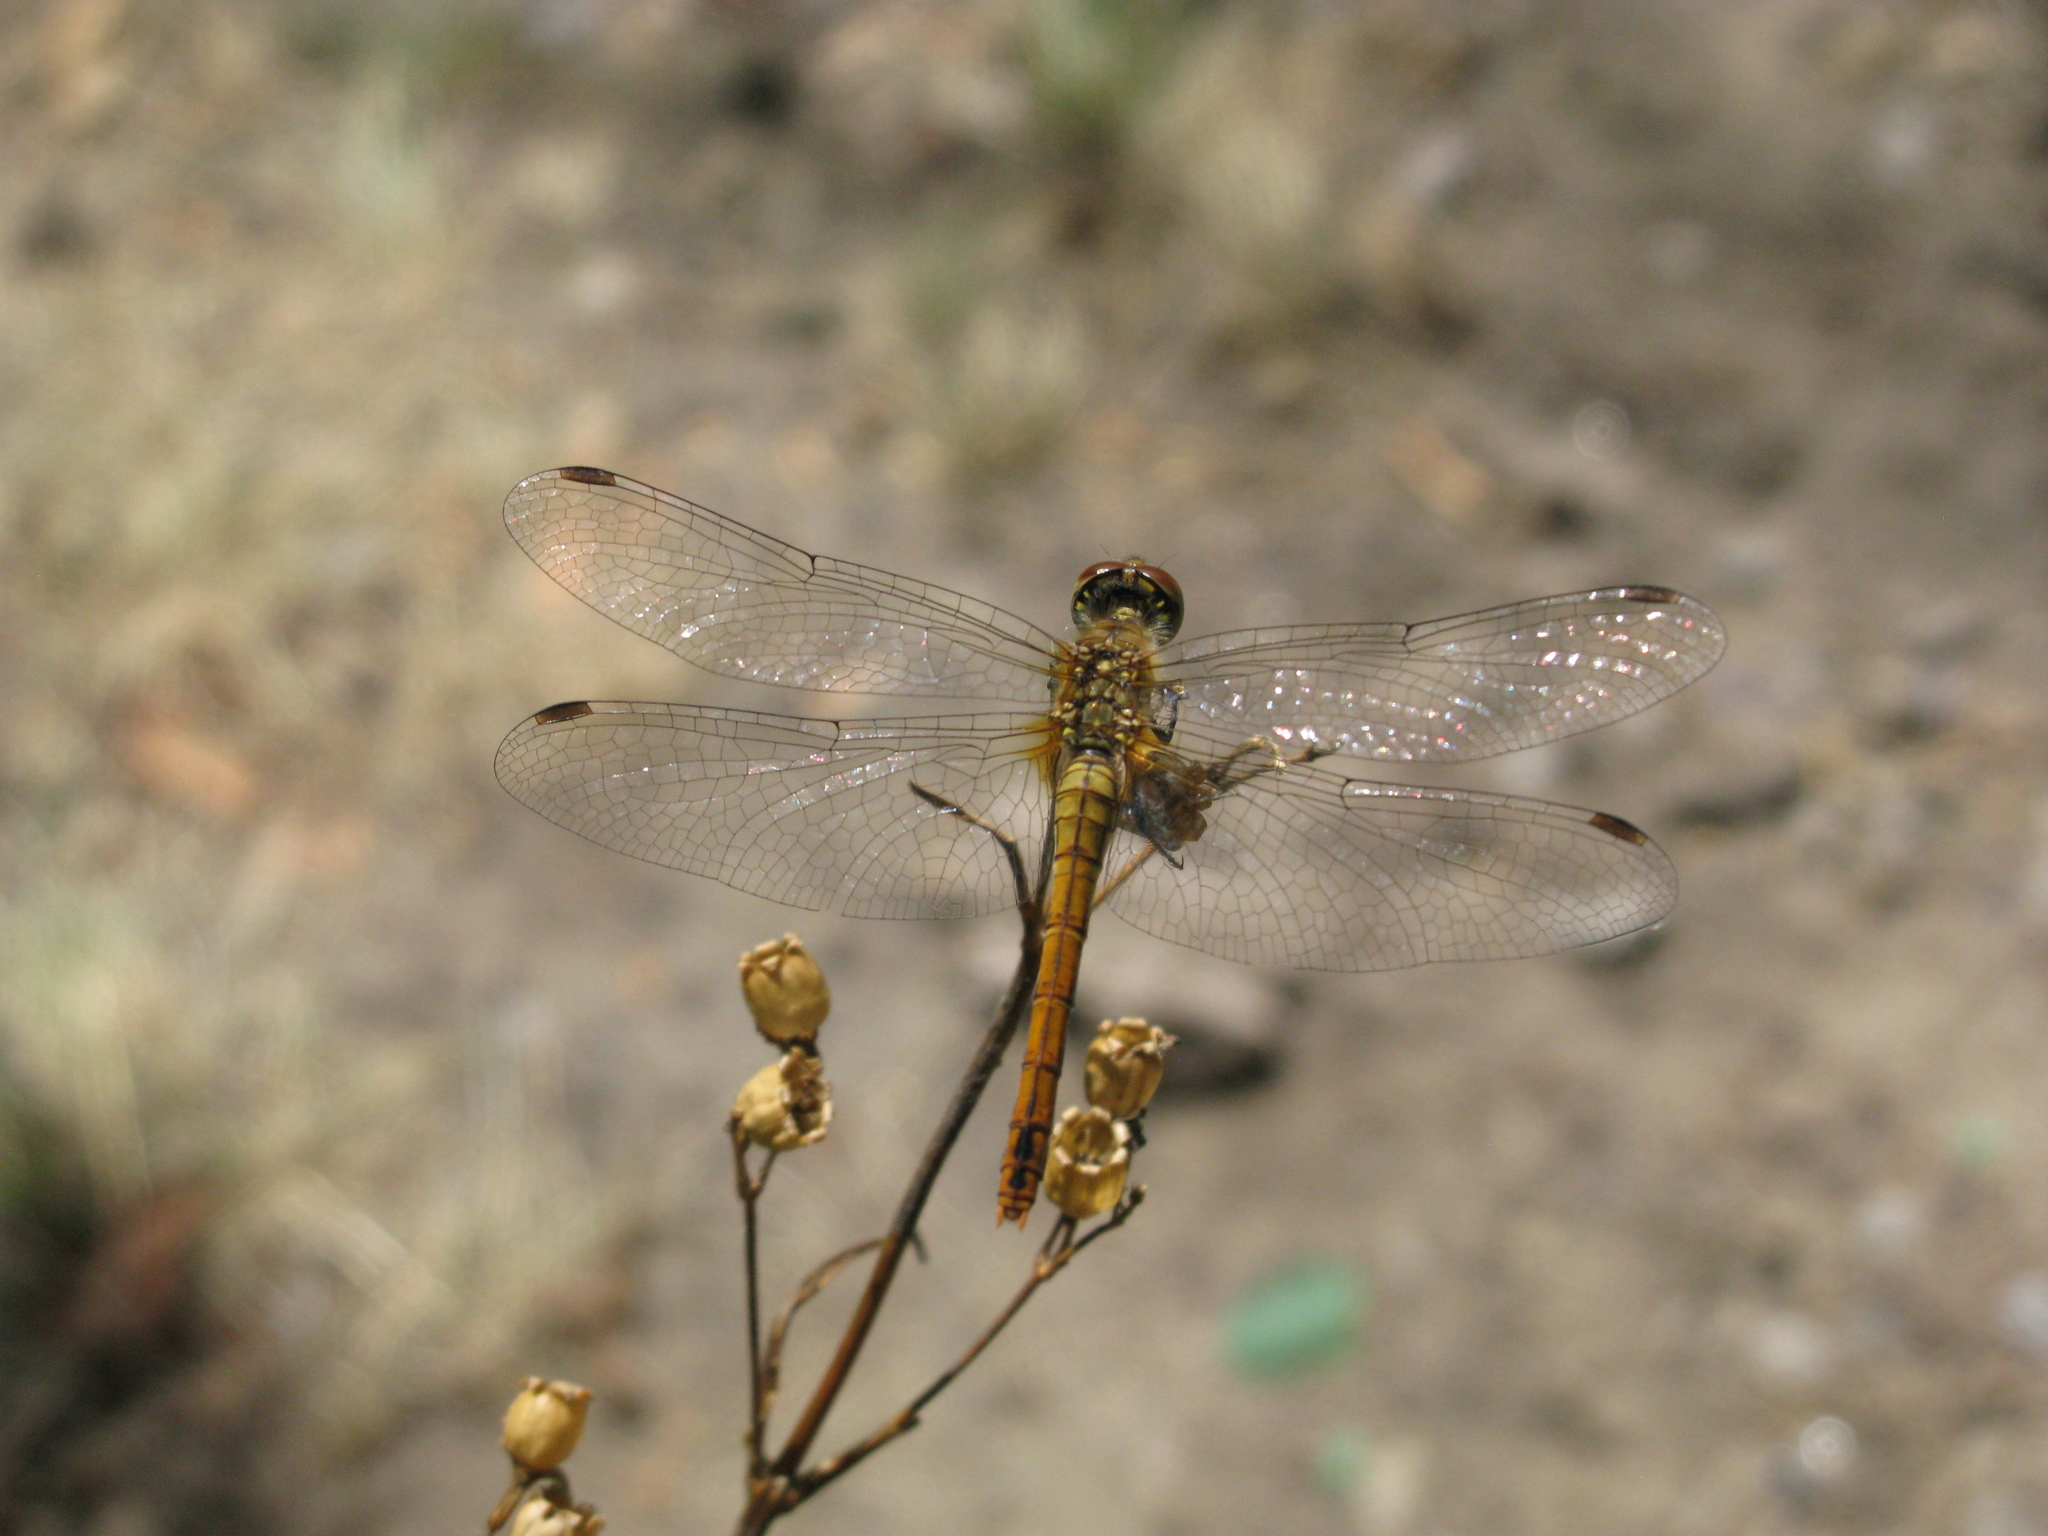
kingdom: Animalia
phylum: Arthropoda
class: Insecta
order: Odonata
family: Libellulidae
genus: Sympetrum
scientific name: Sympetrum sanguineum
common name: Ruddy darter
